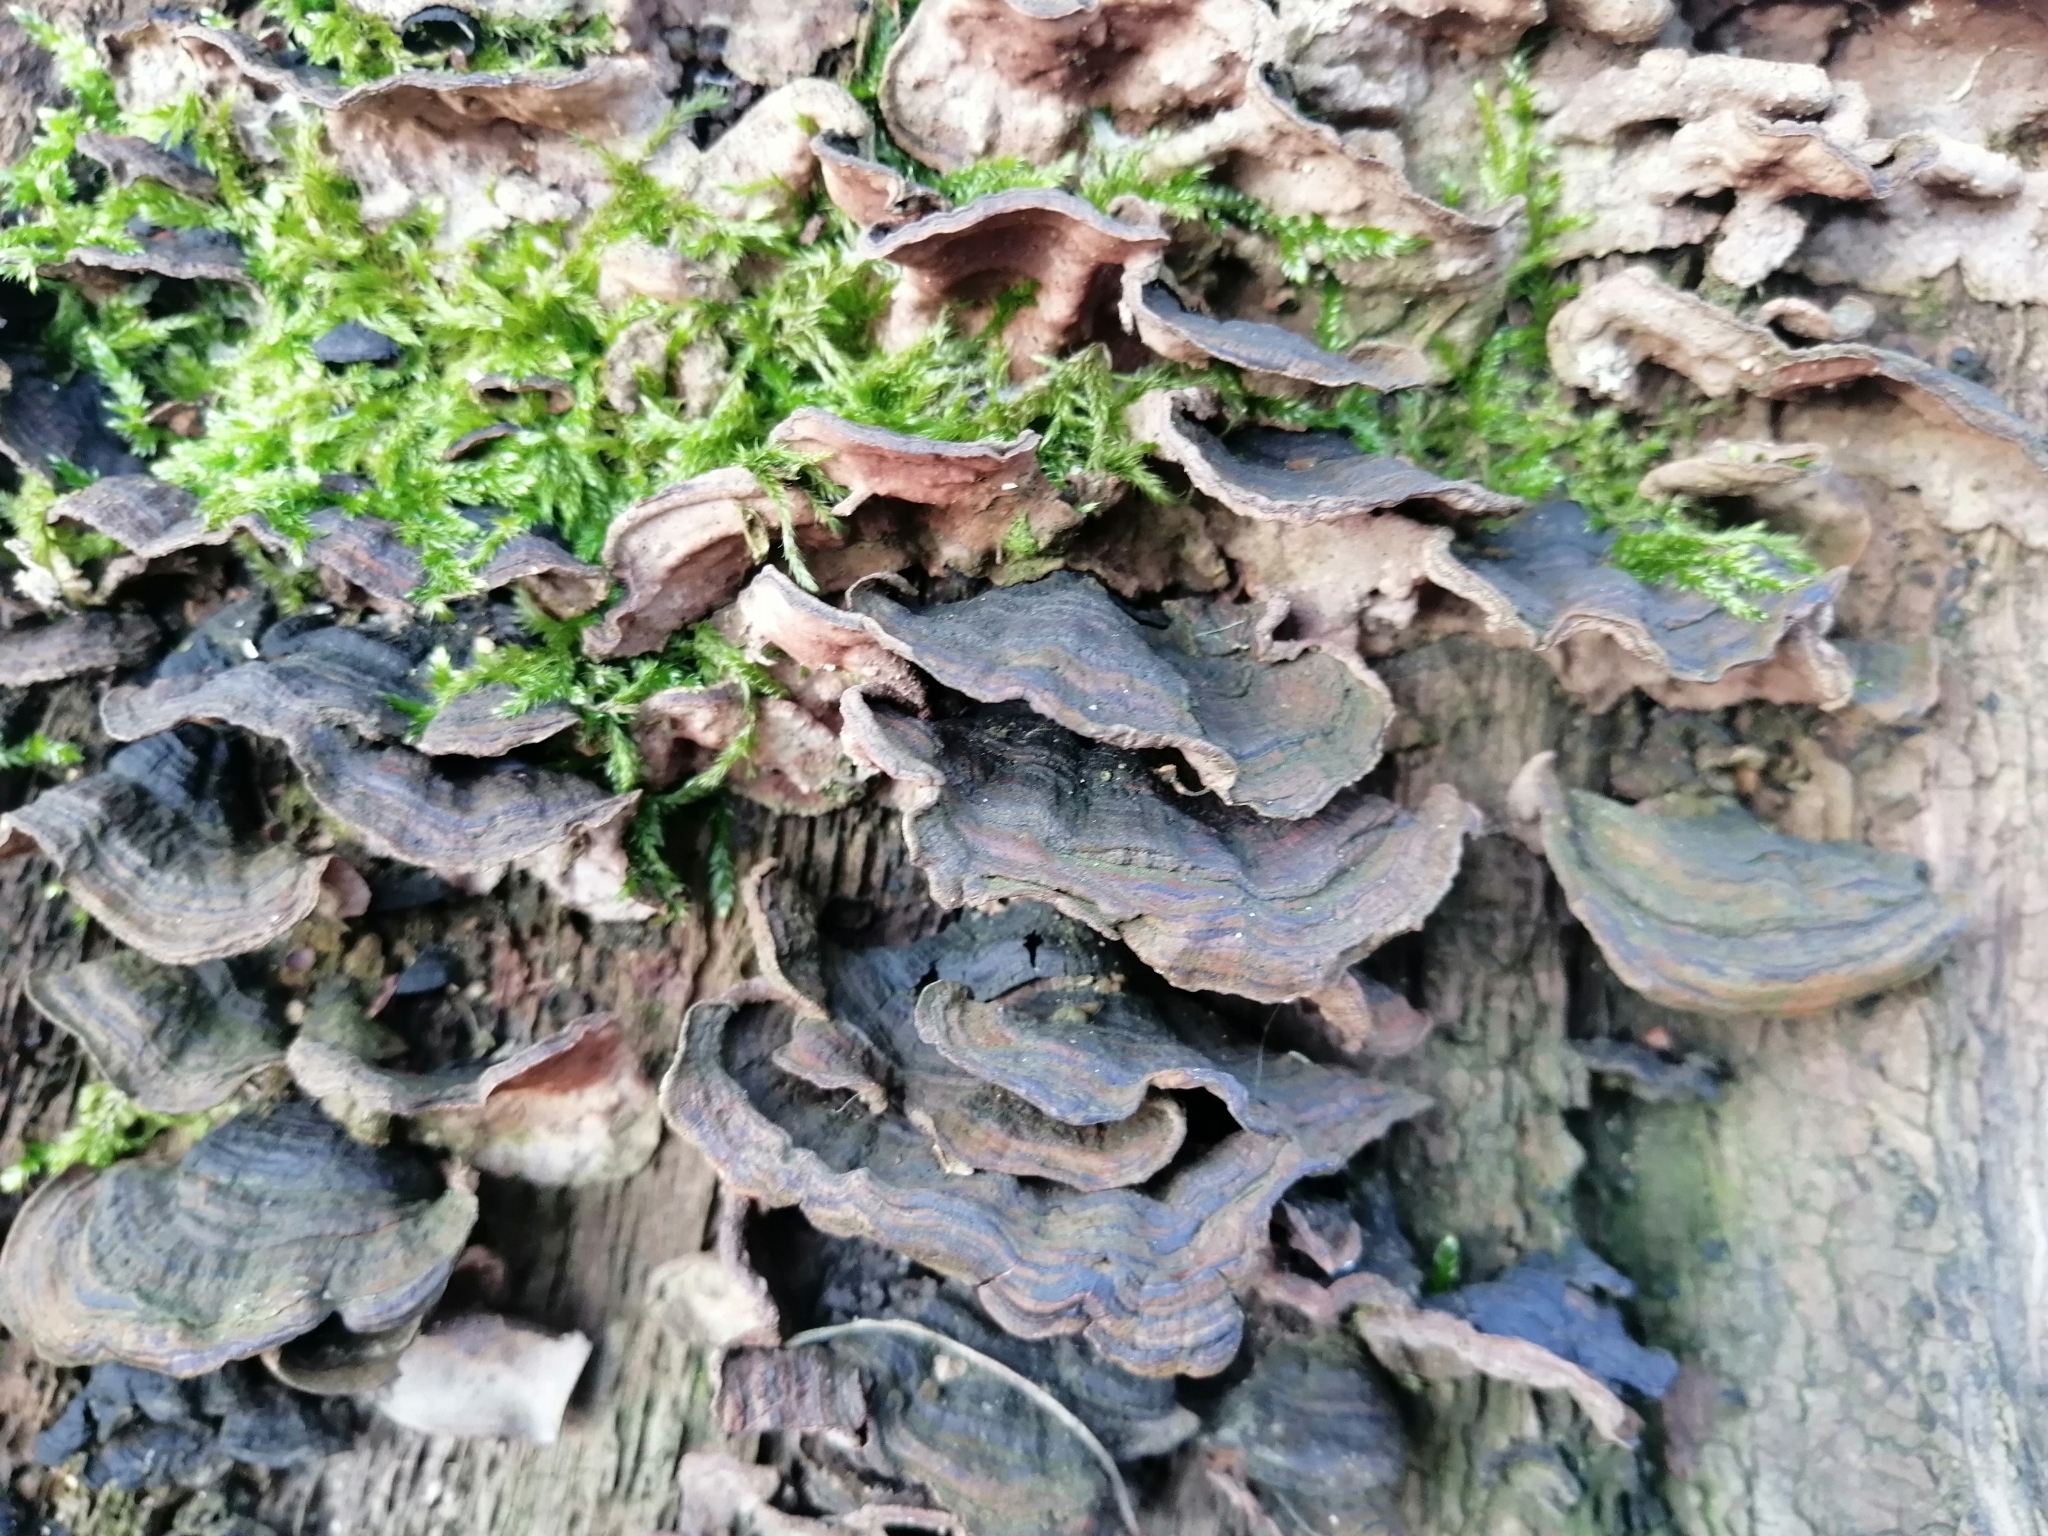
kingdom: Fungi
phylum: Basidiomycota
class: Agaricomycetes
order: Hymenochaetales
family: Hymenochaetaceae
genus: Hymenochaete
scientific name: Hymenochaete rubiginosa
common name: Oak curtain crust
